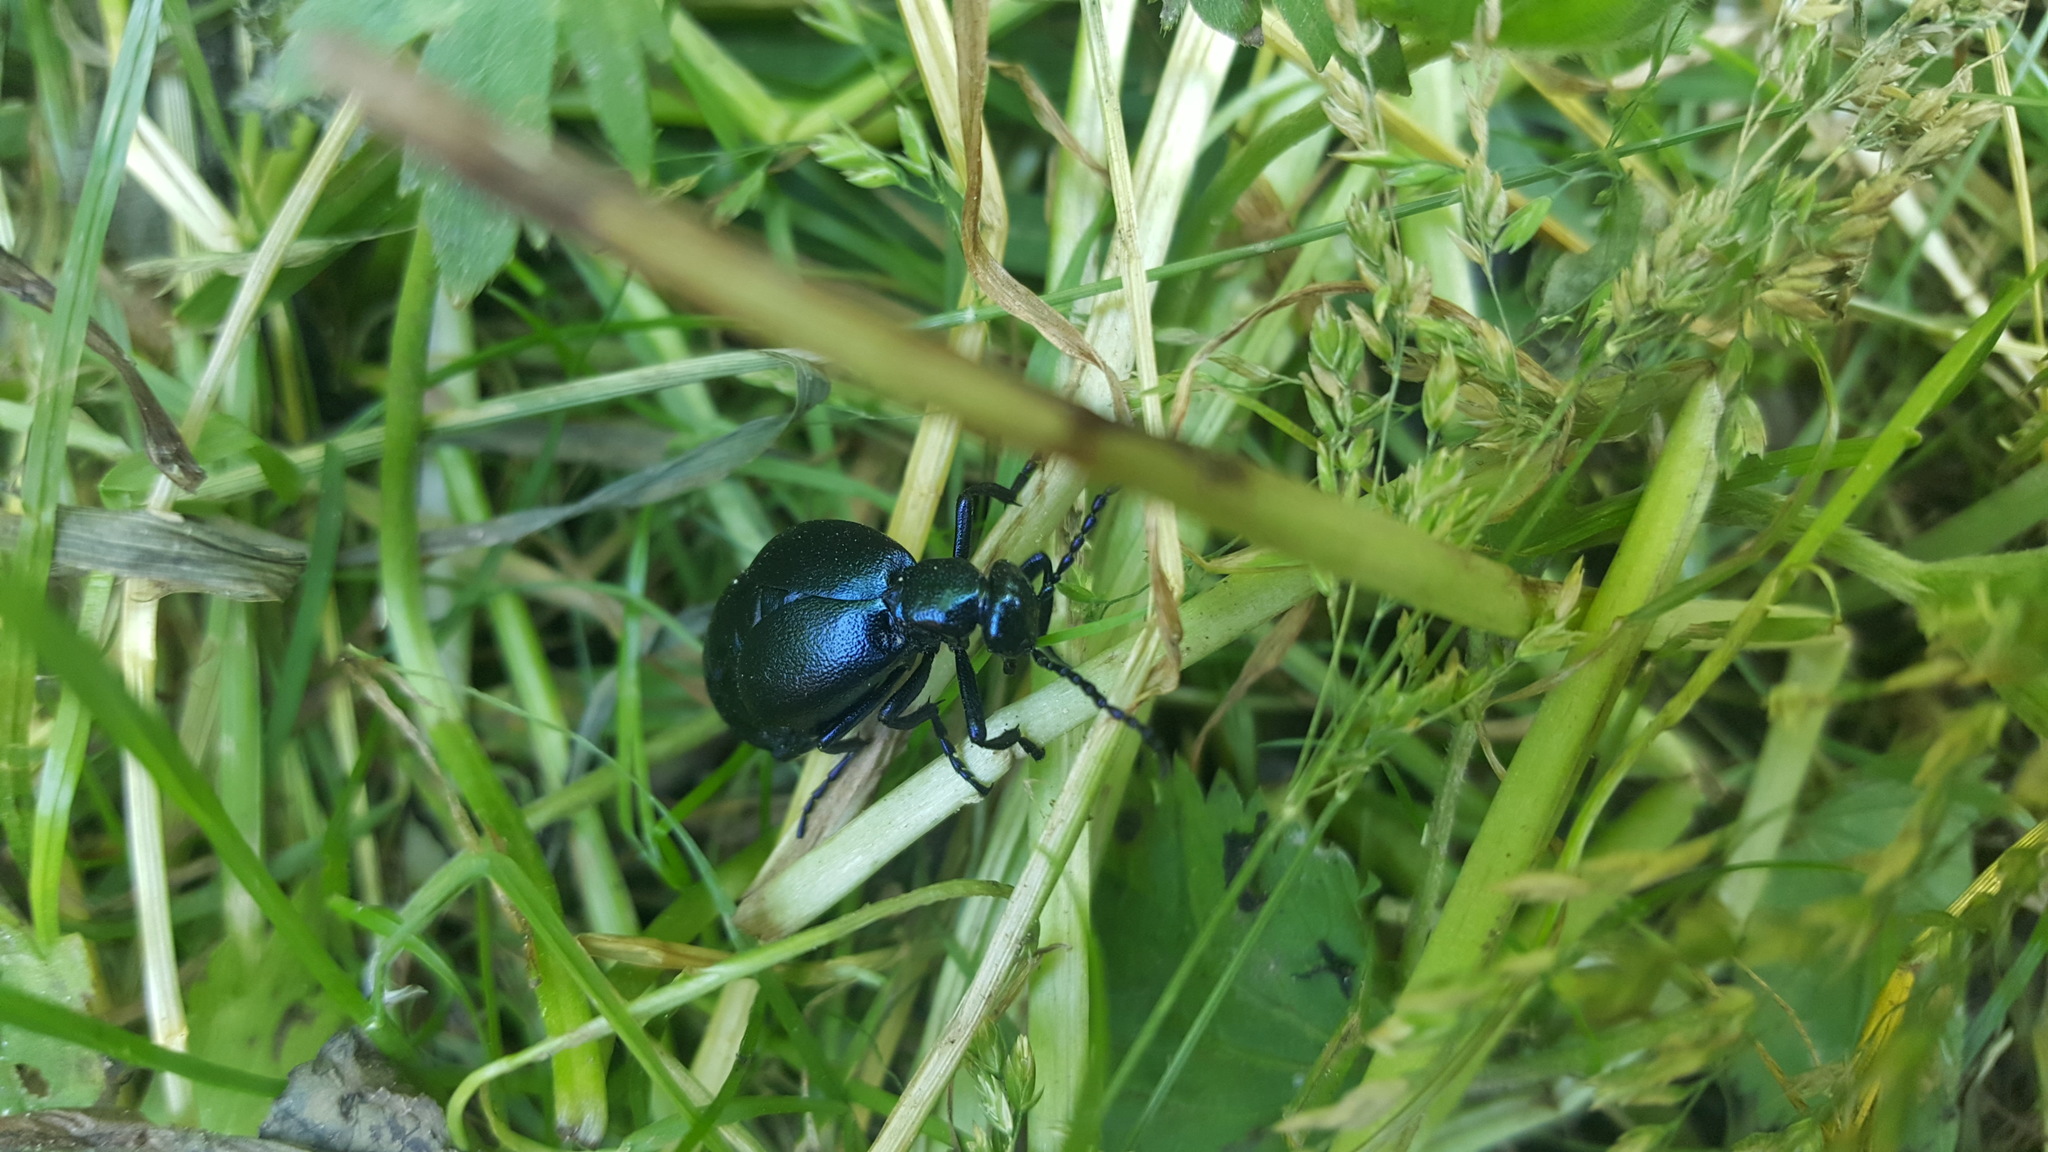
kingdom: Animalia
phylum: Arthropoda
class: Insecta
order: Coleoptera
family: Meloidae
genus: Meloe
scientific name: Meloe violaceus
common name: Violet oil-beetle
